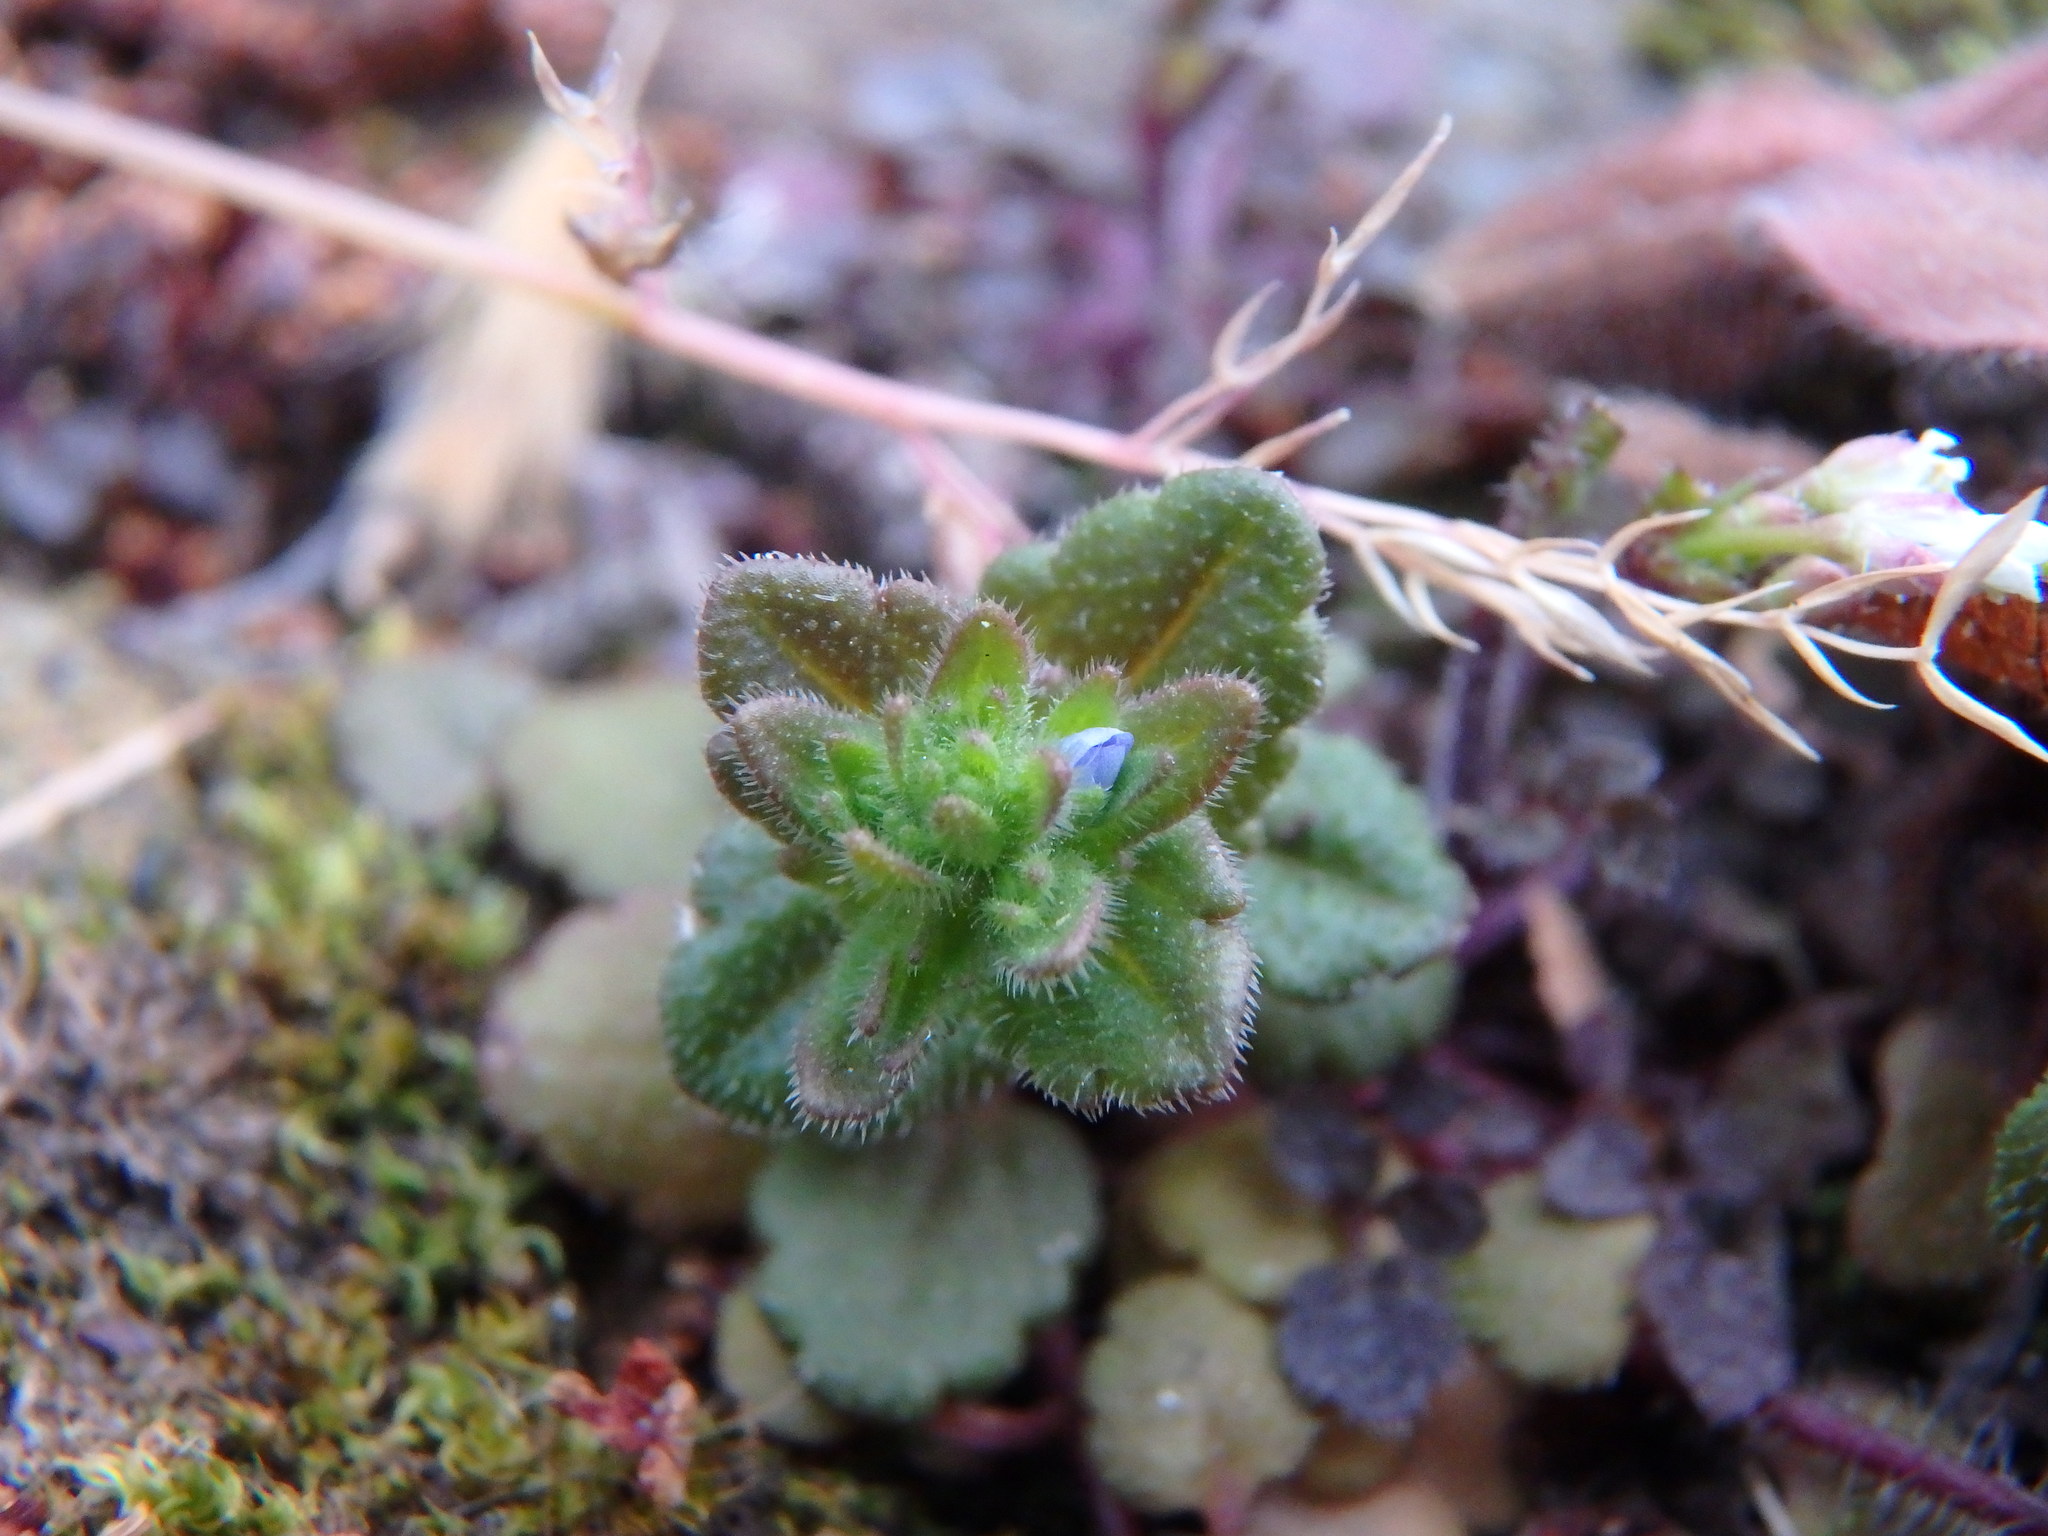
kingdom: Plantae
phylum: Tracheophyta
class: Magnoliopsida
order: Lamiales
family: Plantaginaceae
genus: Veronica
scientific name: Veronica arvensis
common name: Corn speedwell
